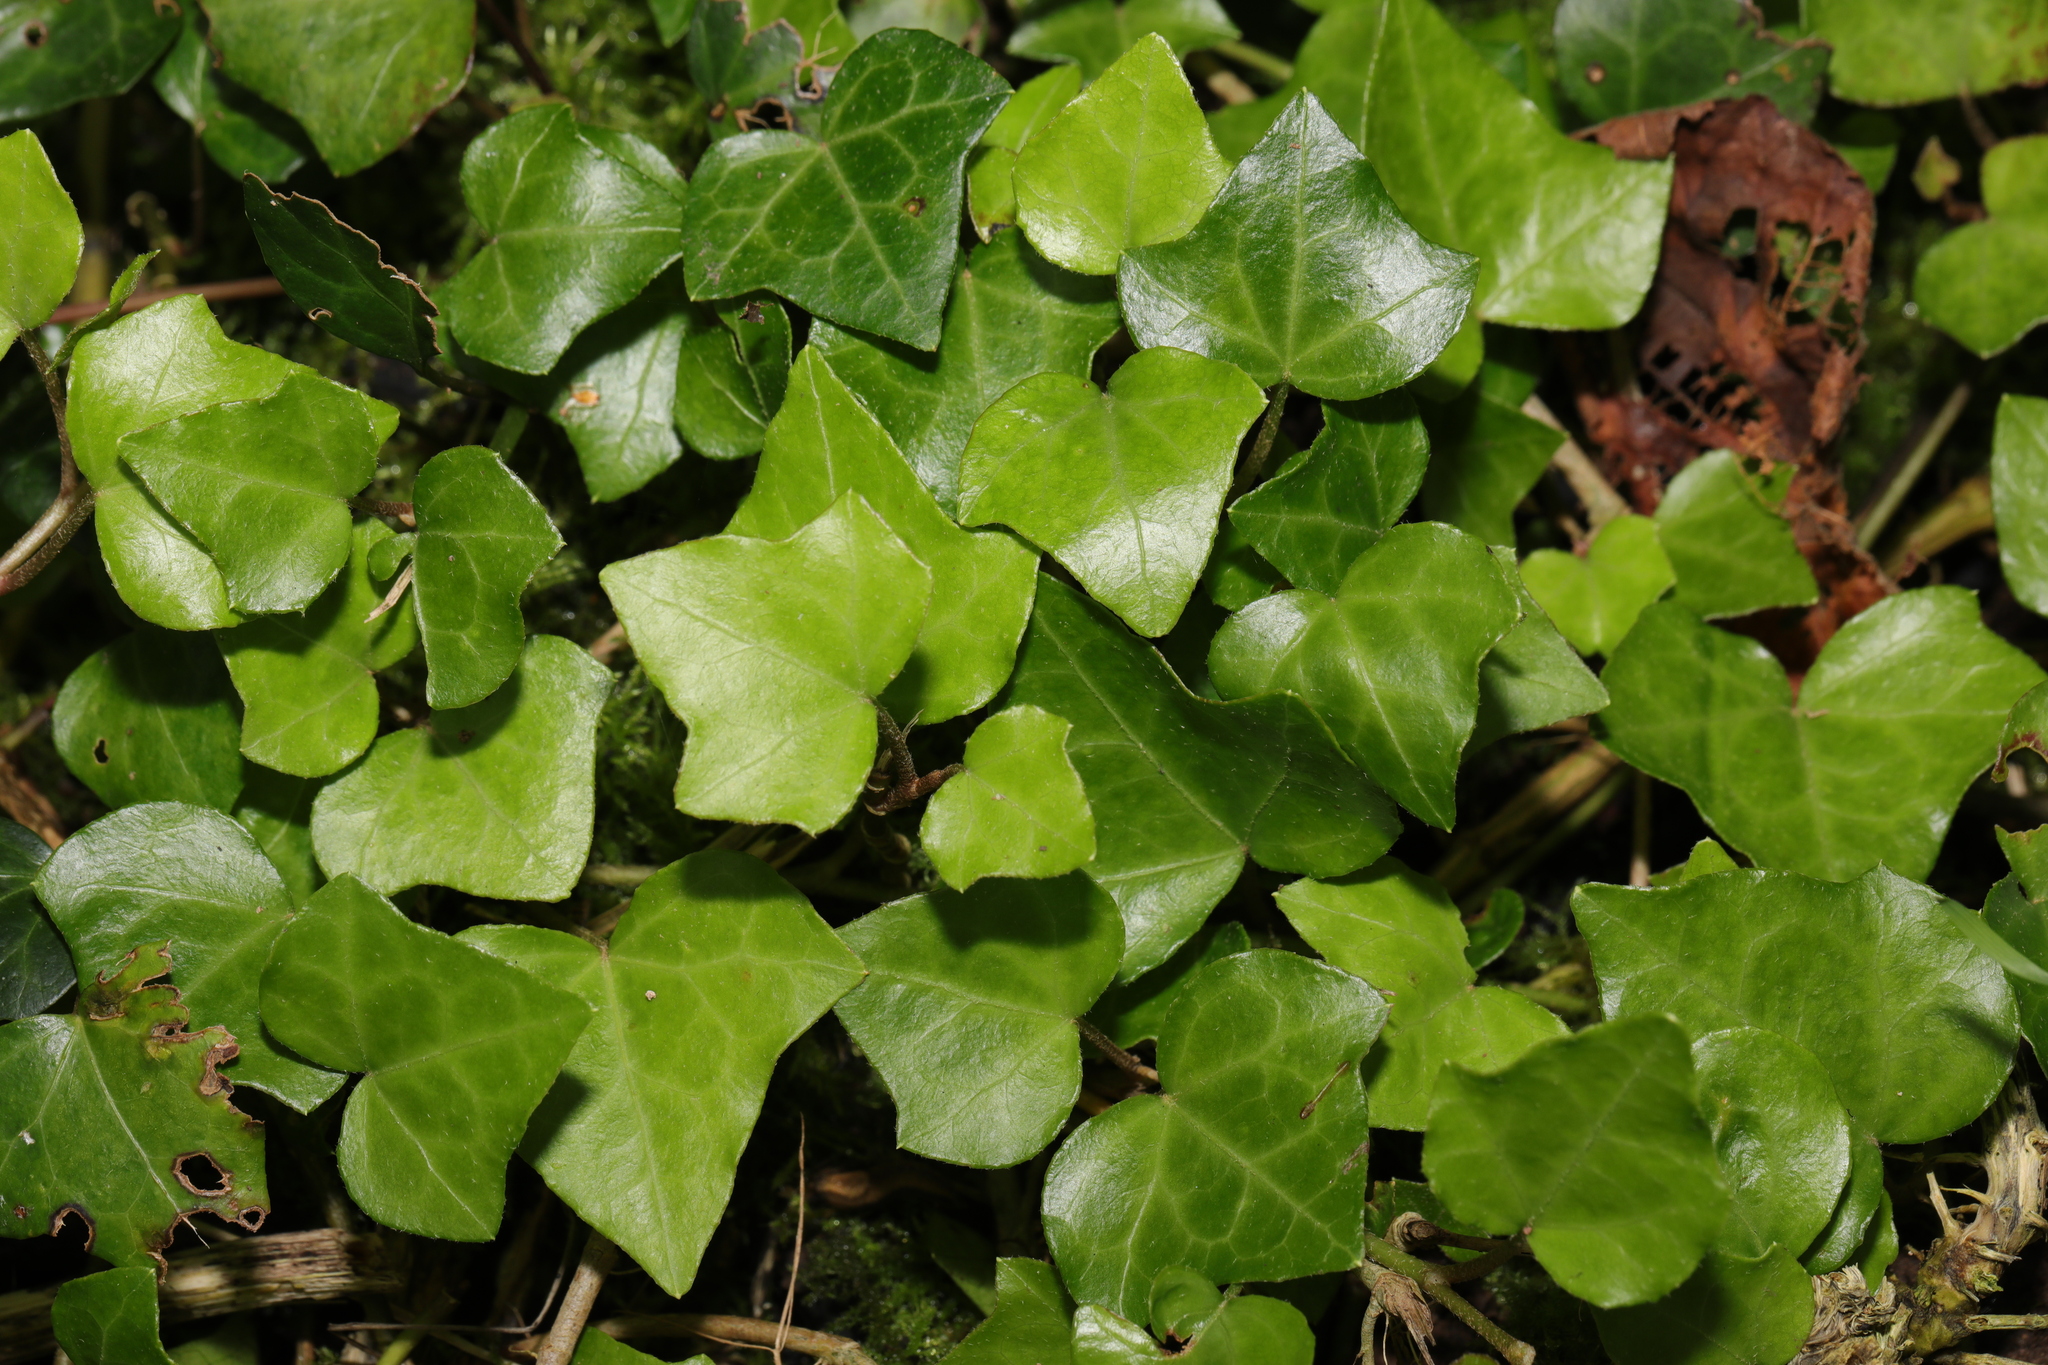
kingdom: Plantae
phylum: Tracheophyta
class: Magnoliopsida
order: Apiales
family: Araliaceae
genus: Hedera
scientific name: Hedera helix
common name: Ivy
